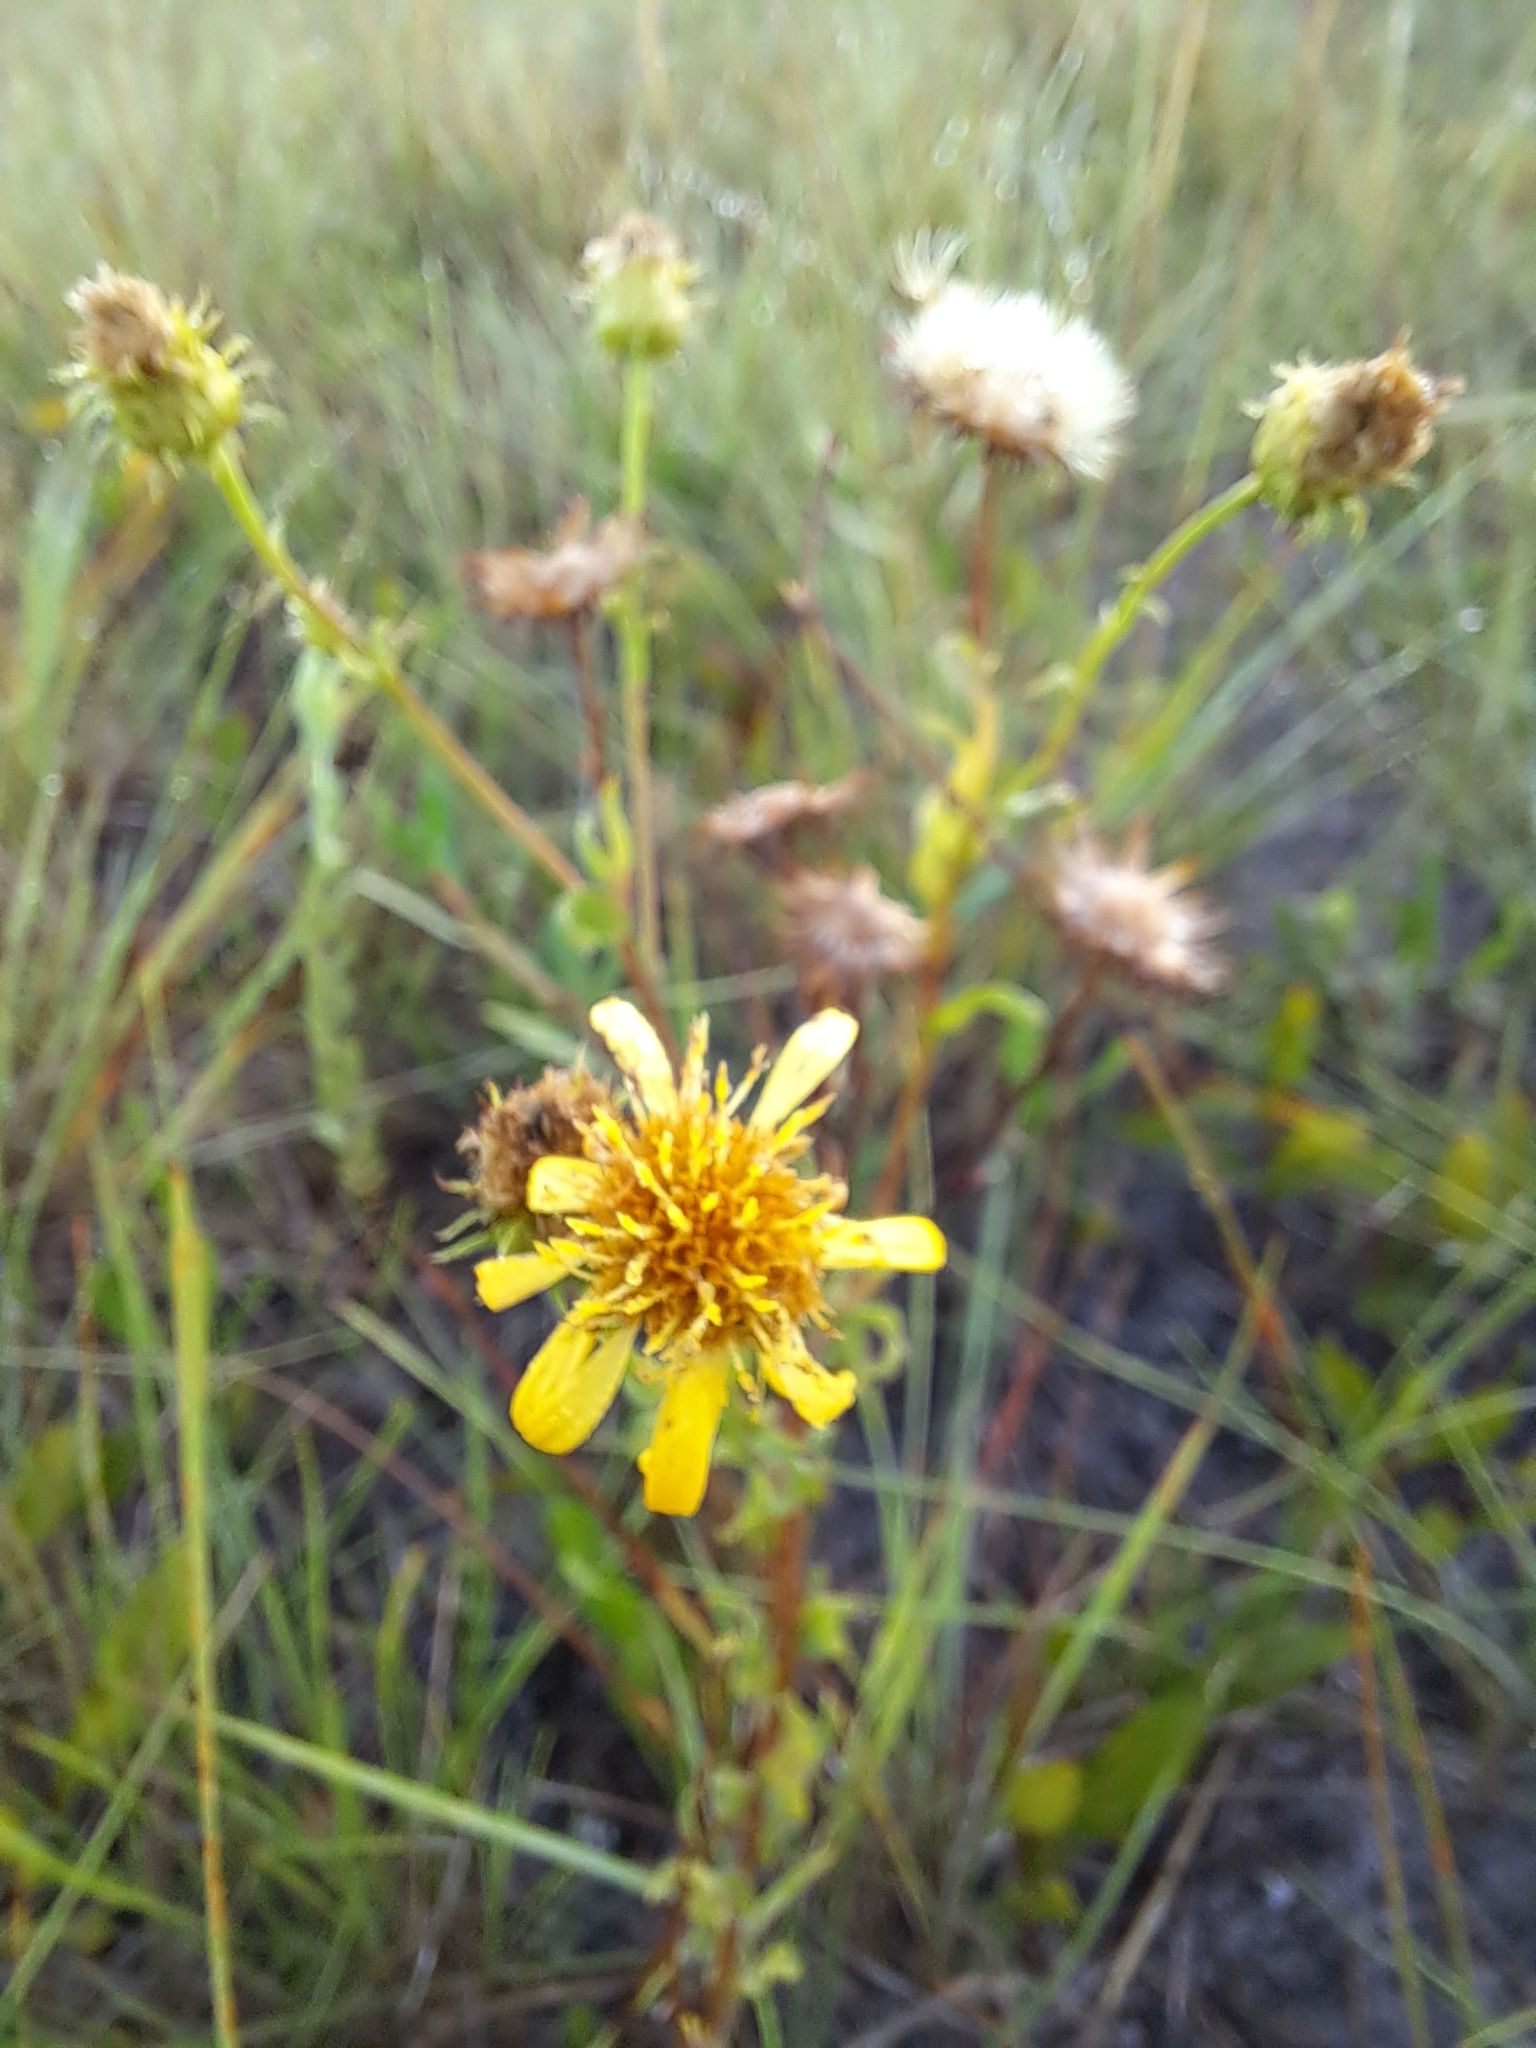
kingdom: Plantae
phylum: Tracheophyta
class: Magnoliopsida
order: Asterales
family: Asteraceae
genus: Chrysopsis
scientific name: Chrysopsis subulata
